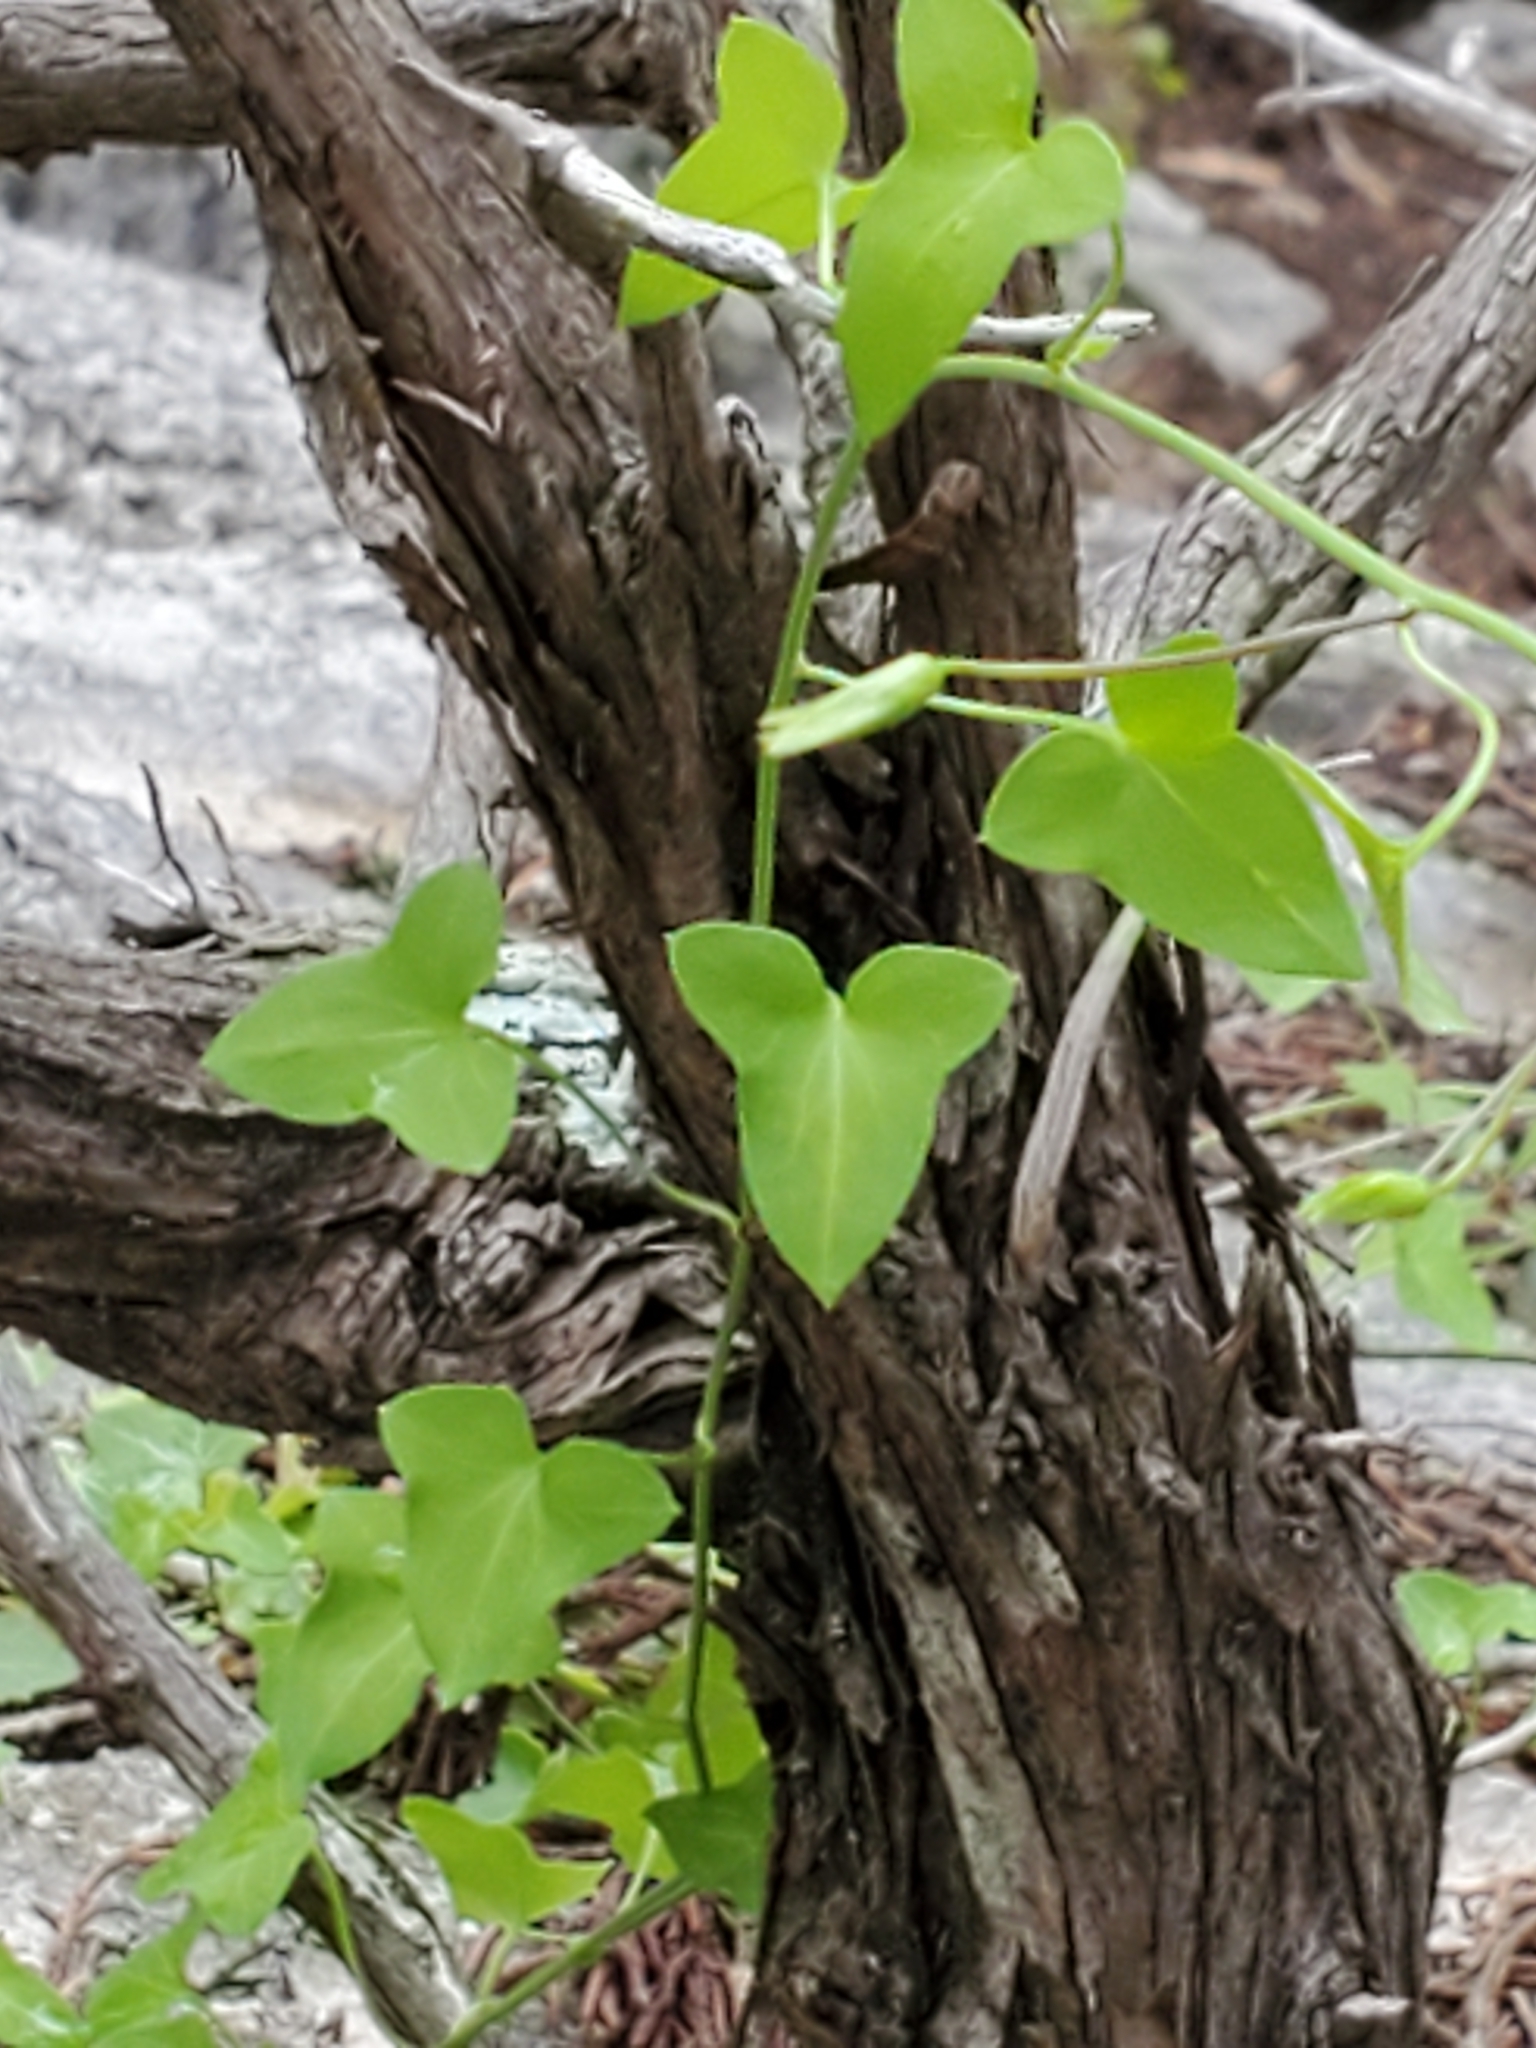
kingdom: Plantae
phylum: Tracheophyta
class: Magnoliopsida
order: Lamiales
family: Plantaginaceae
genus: Maurandella
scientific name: Maurandella antirrhiniflora
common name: Violet twining-snapdragon
